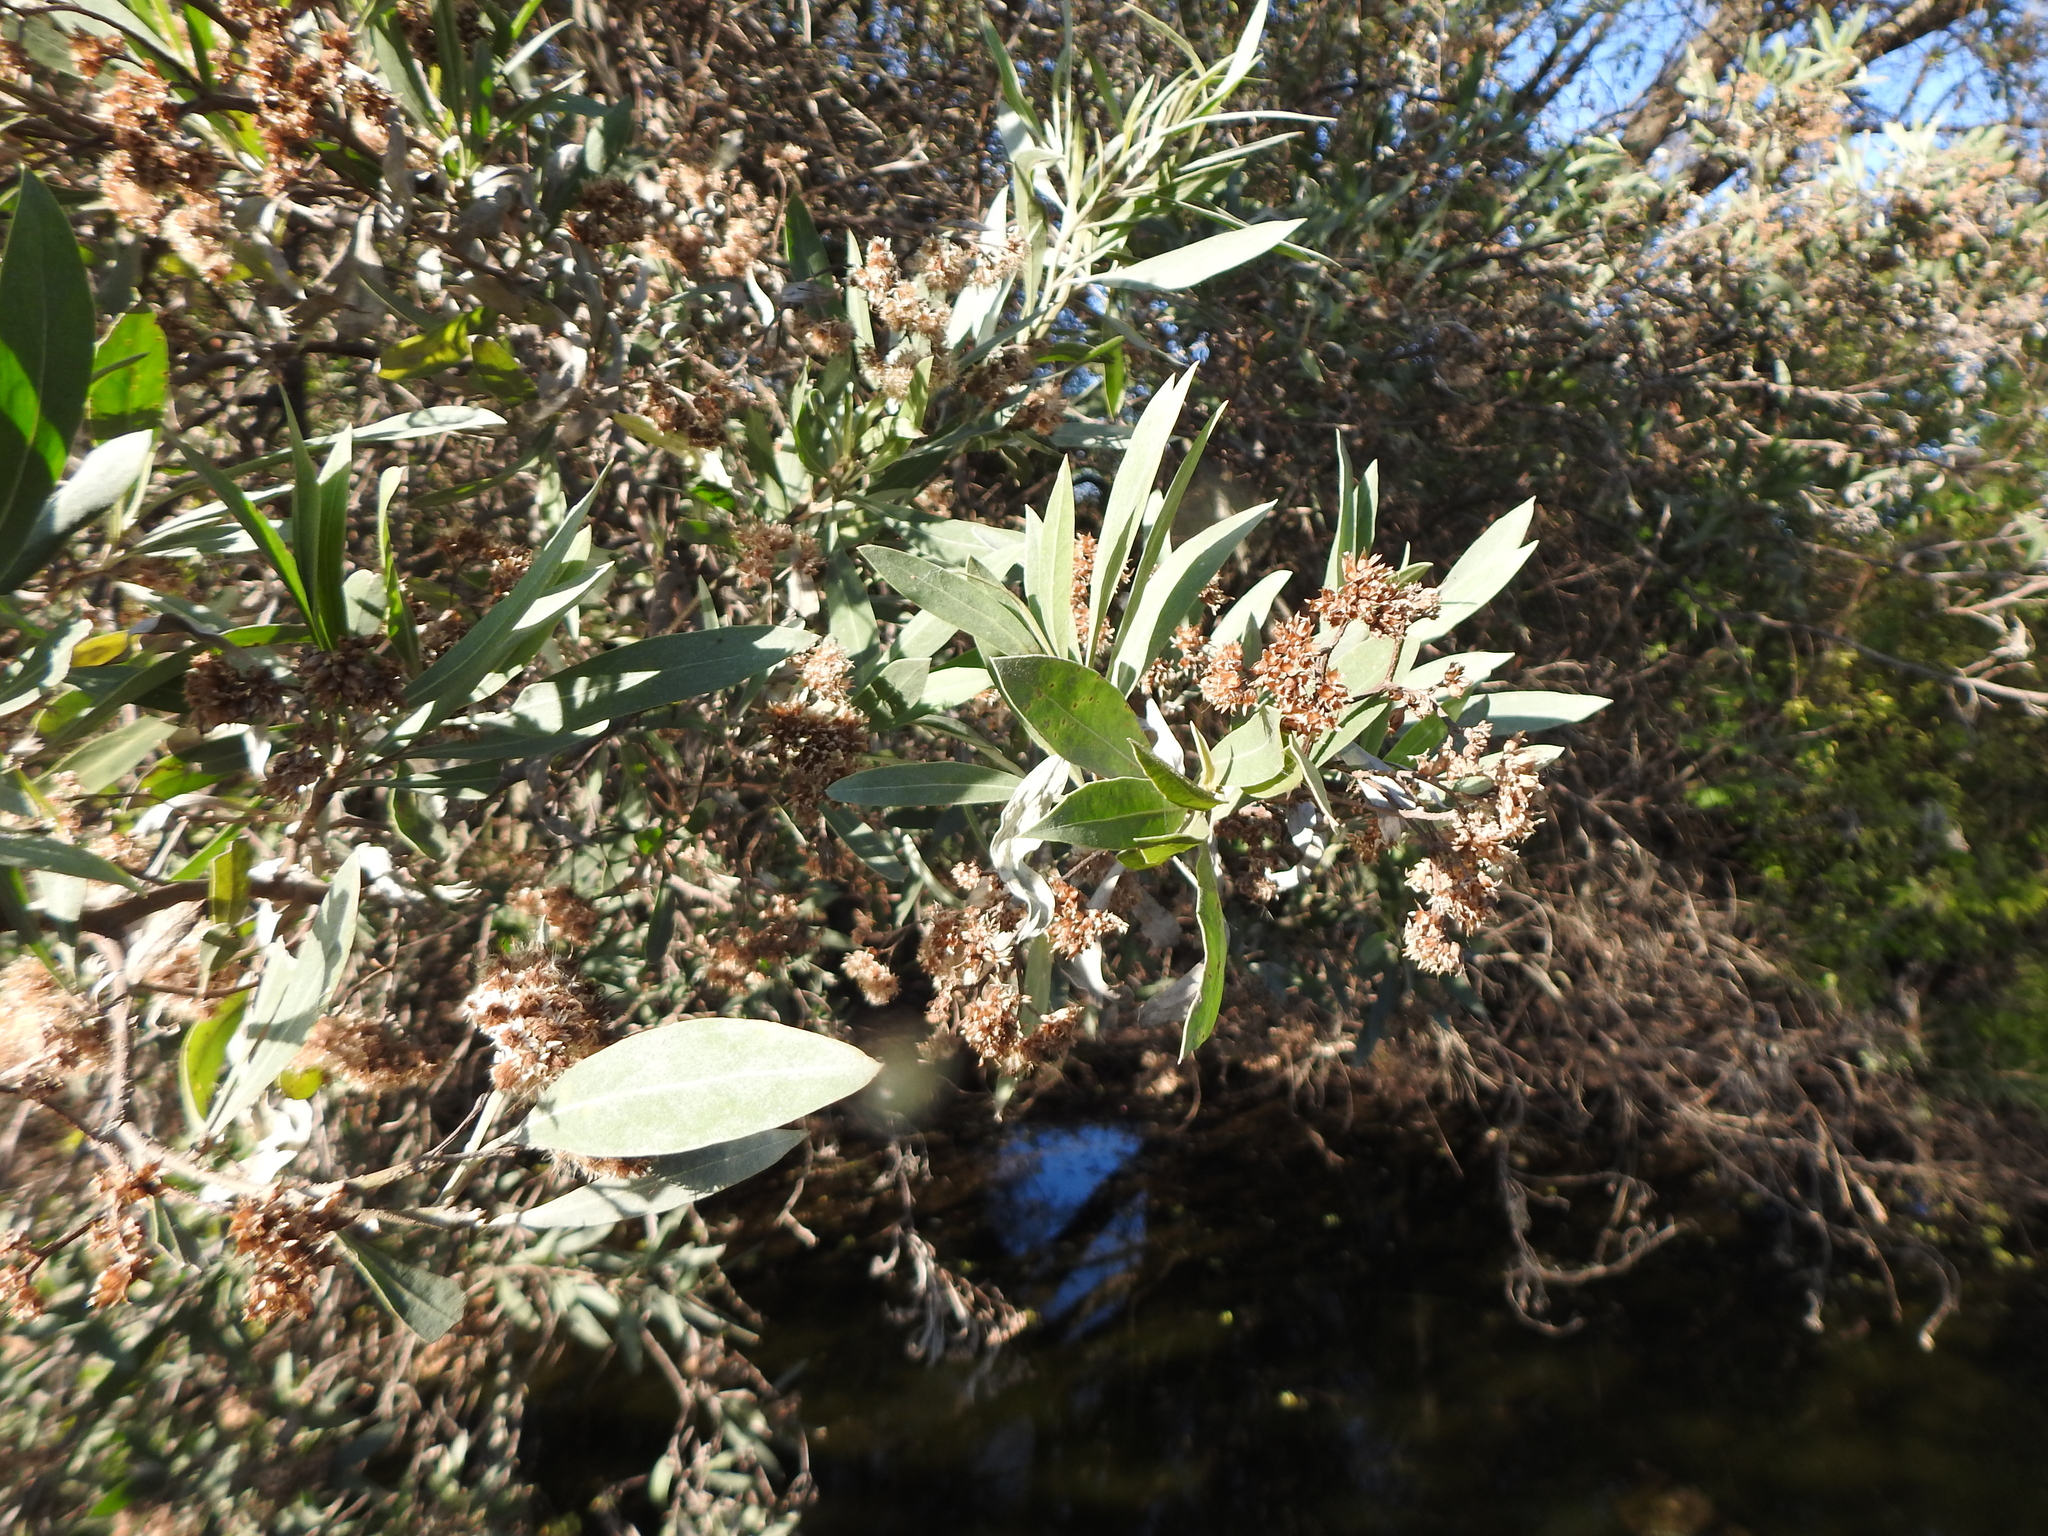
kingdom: Plantae
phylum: Tracheophyta
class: Magnoliopsida
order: Asterales
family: Asteraceae
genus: Tessaria
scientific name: Tessaria integrifolia
